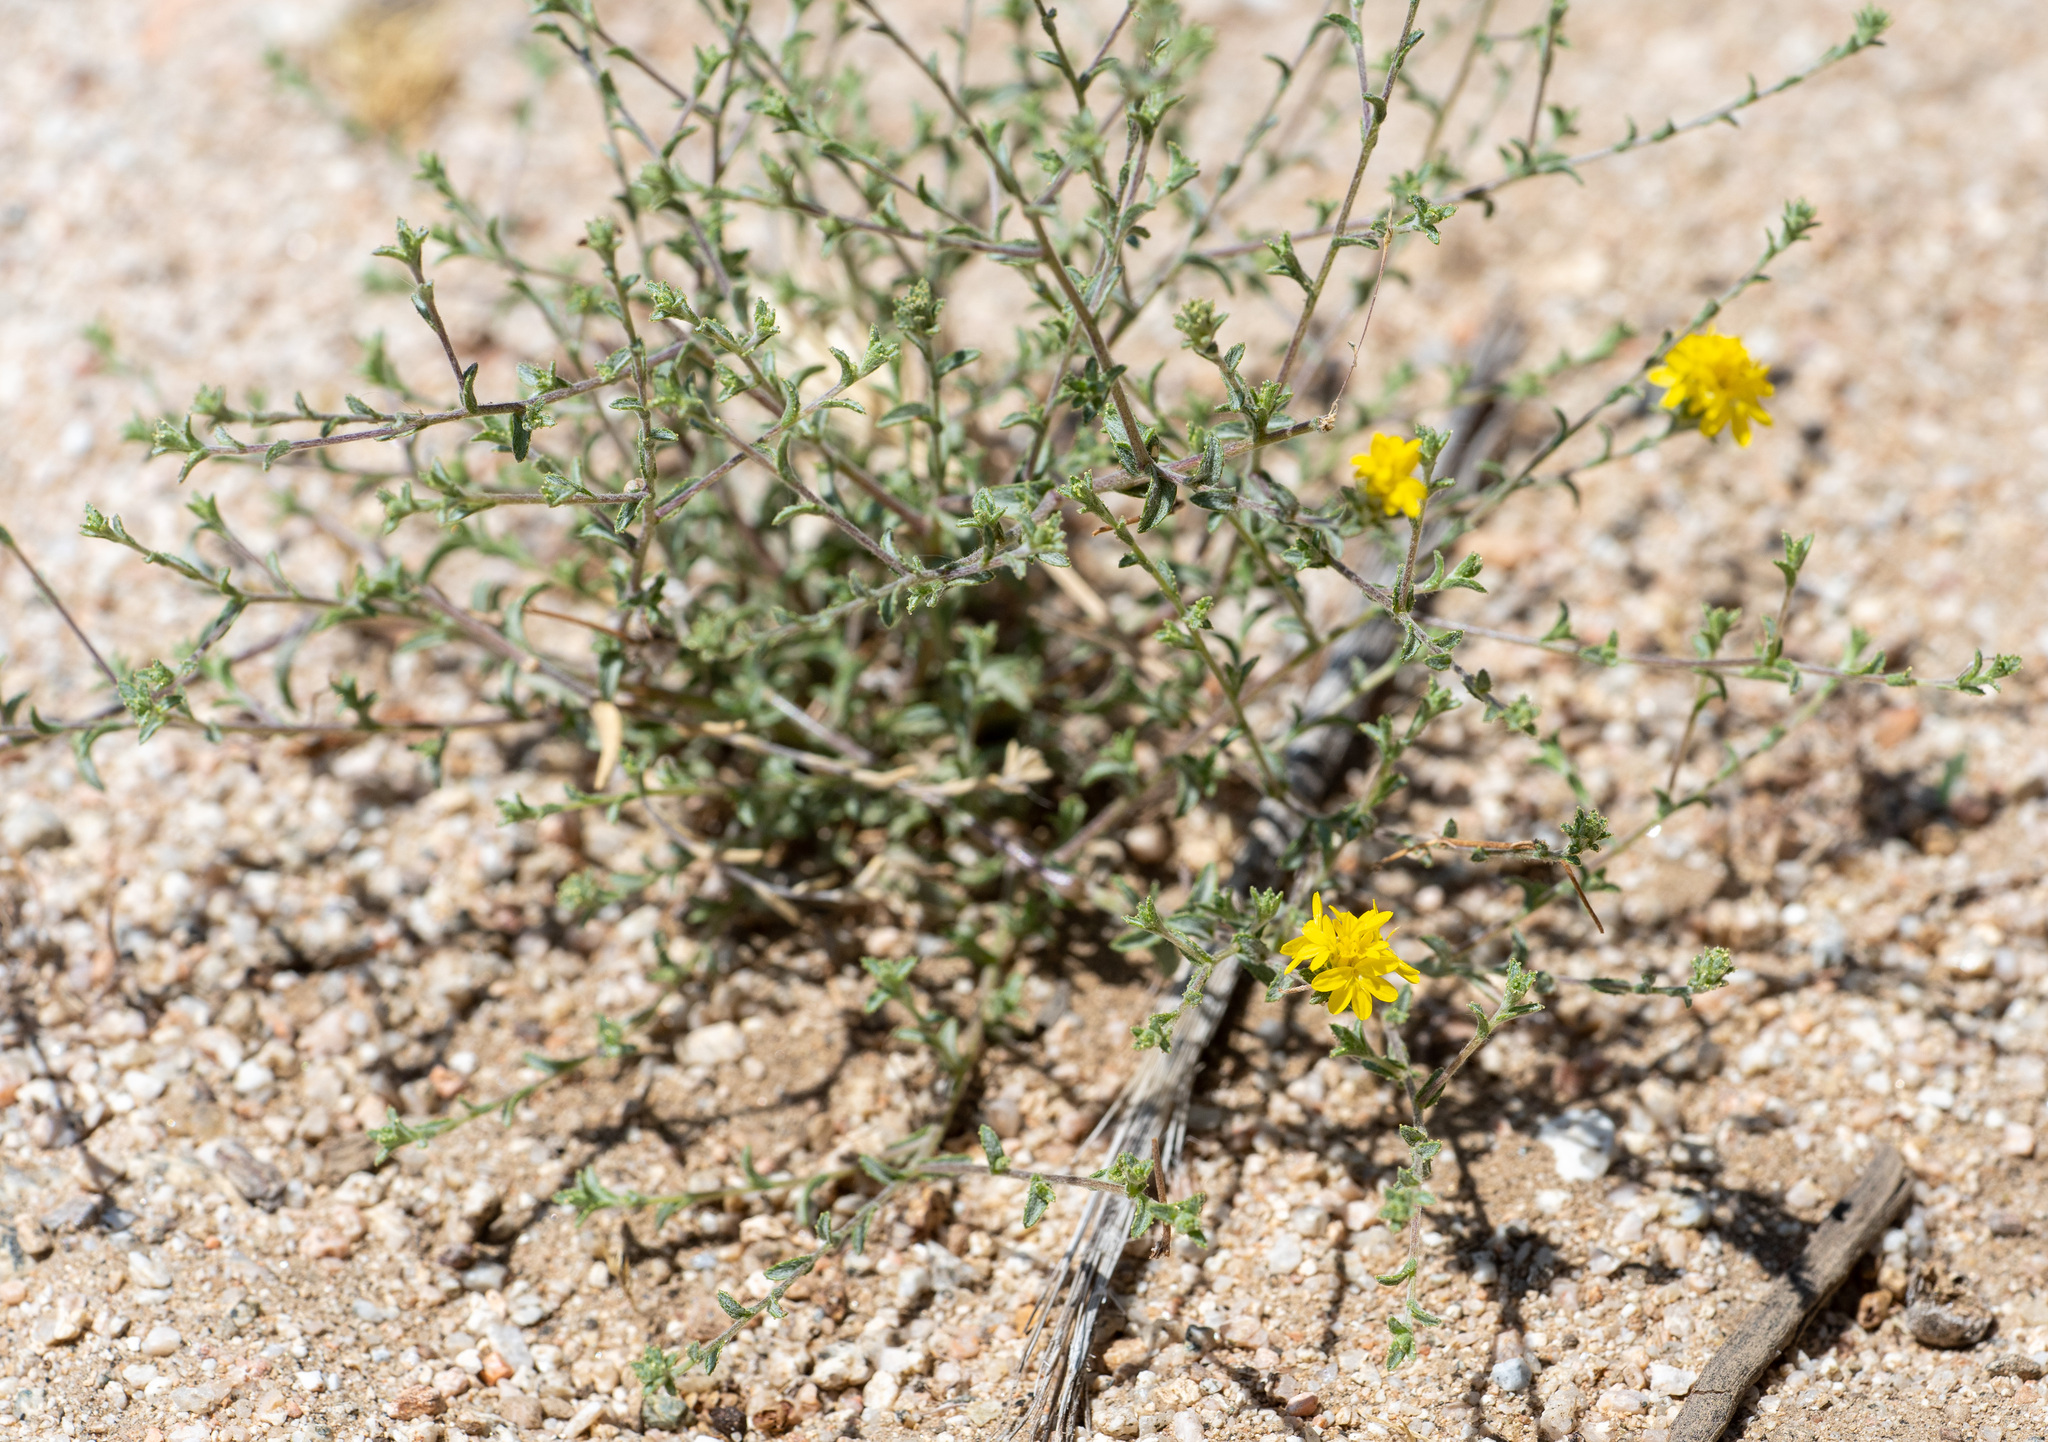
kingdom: Plantae
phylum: Tracheophyta
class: Magnoliopsida
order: Asterales
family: Asteraceae
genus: Lessingia
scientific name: Lessingia glandulifera
